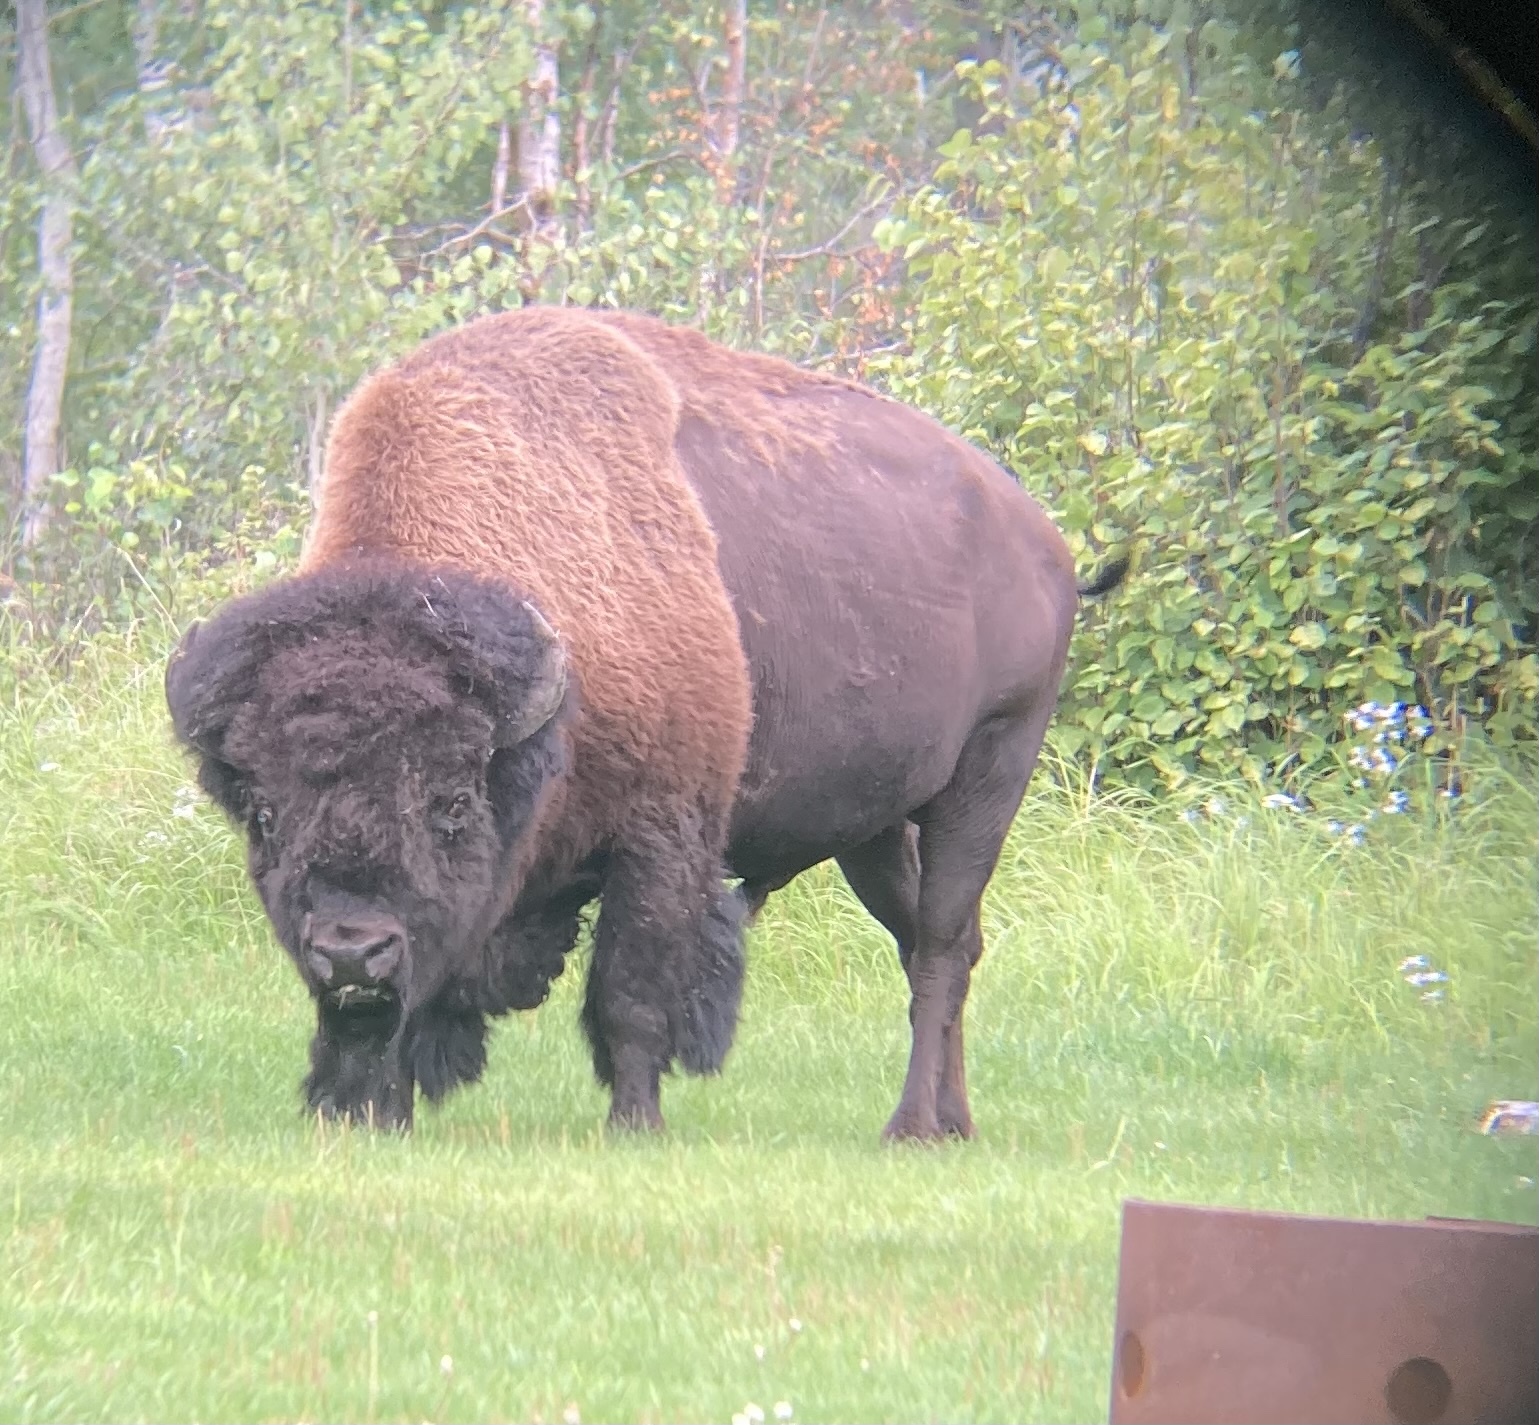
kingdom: Animalia
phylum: Chordata
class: Mammalia
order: Artiodactyla
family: Bovidae
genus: Bison
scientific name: Bison bison
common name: American bison
